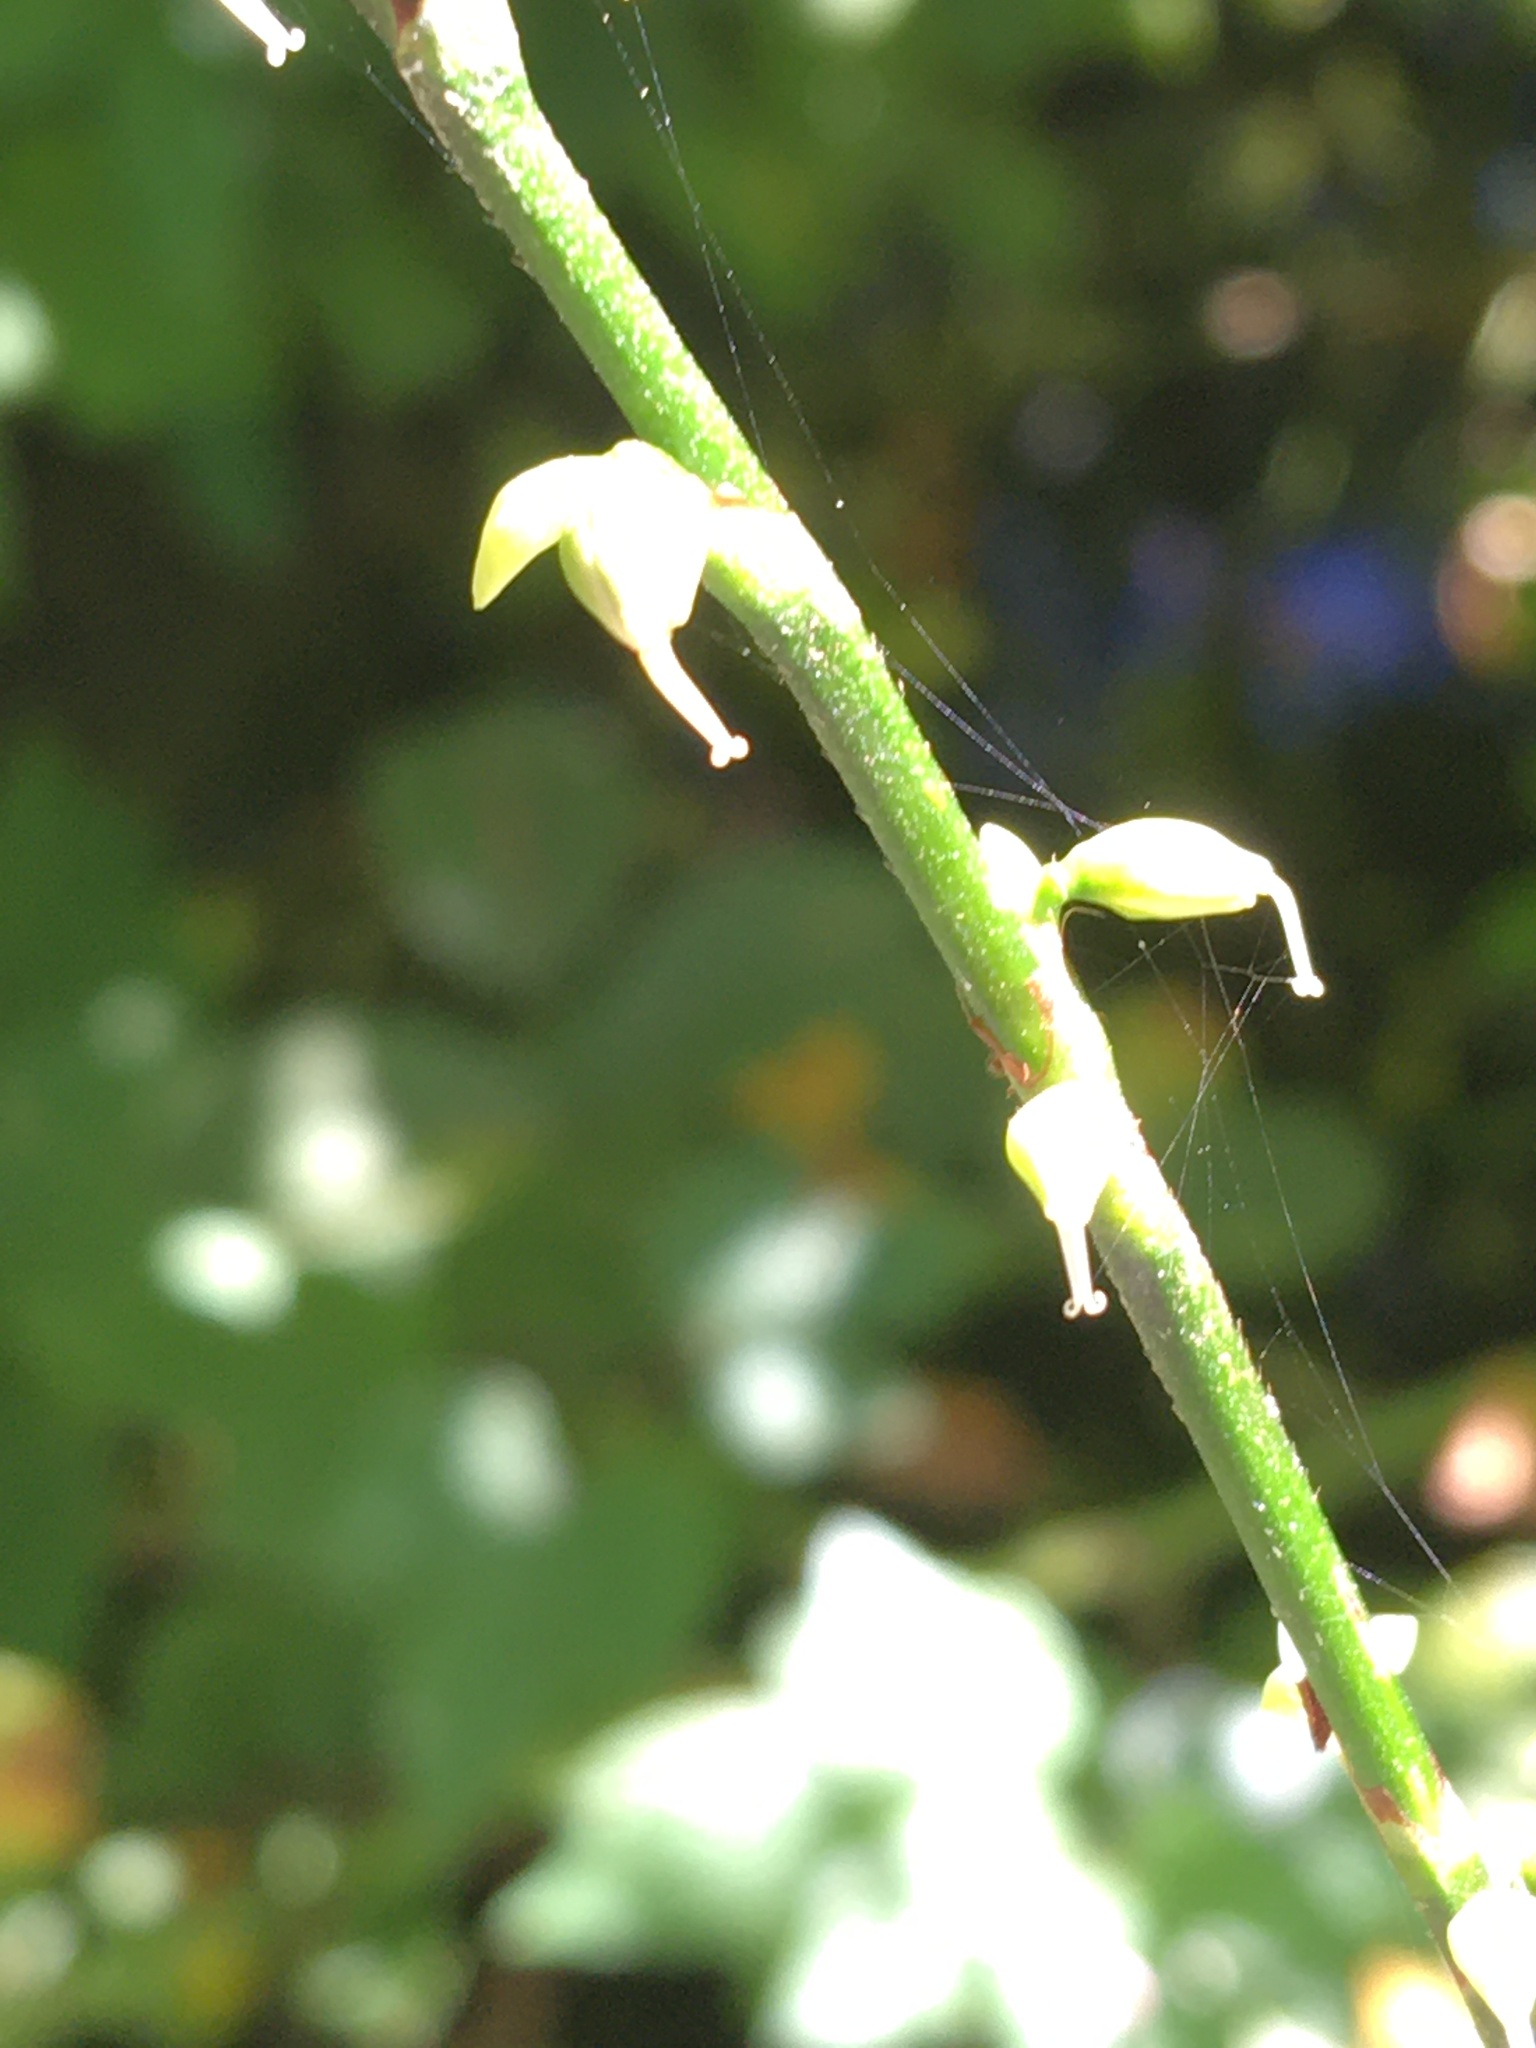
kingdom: Plantae
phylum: Tracheophyta
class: Magnoliopsida
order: Caryophyllales
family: Polygonaceae
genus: Persicaria
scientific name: Persicaria virginiana
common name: Jumpseed
